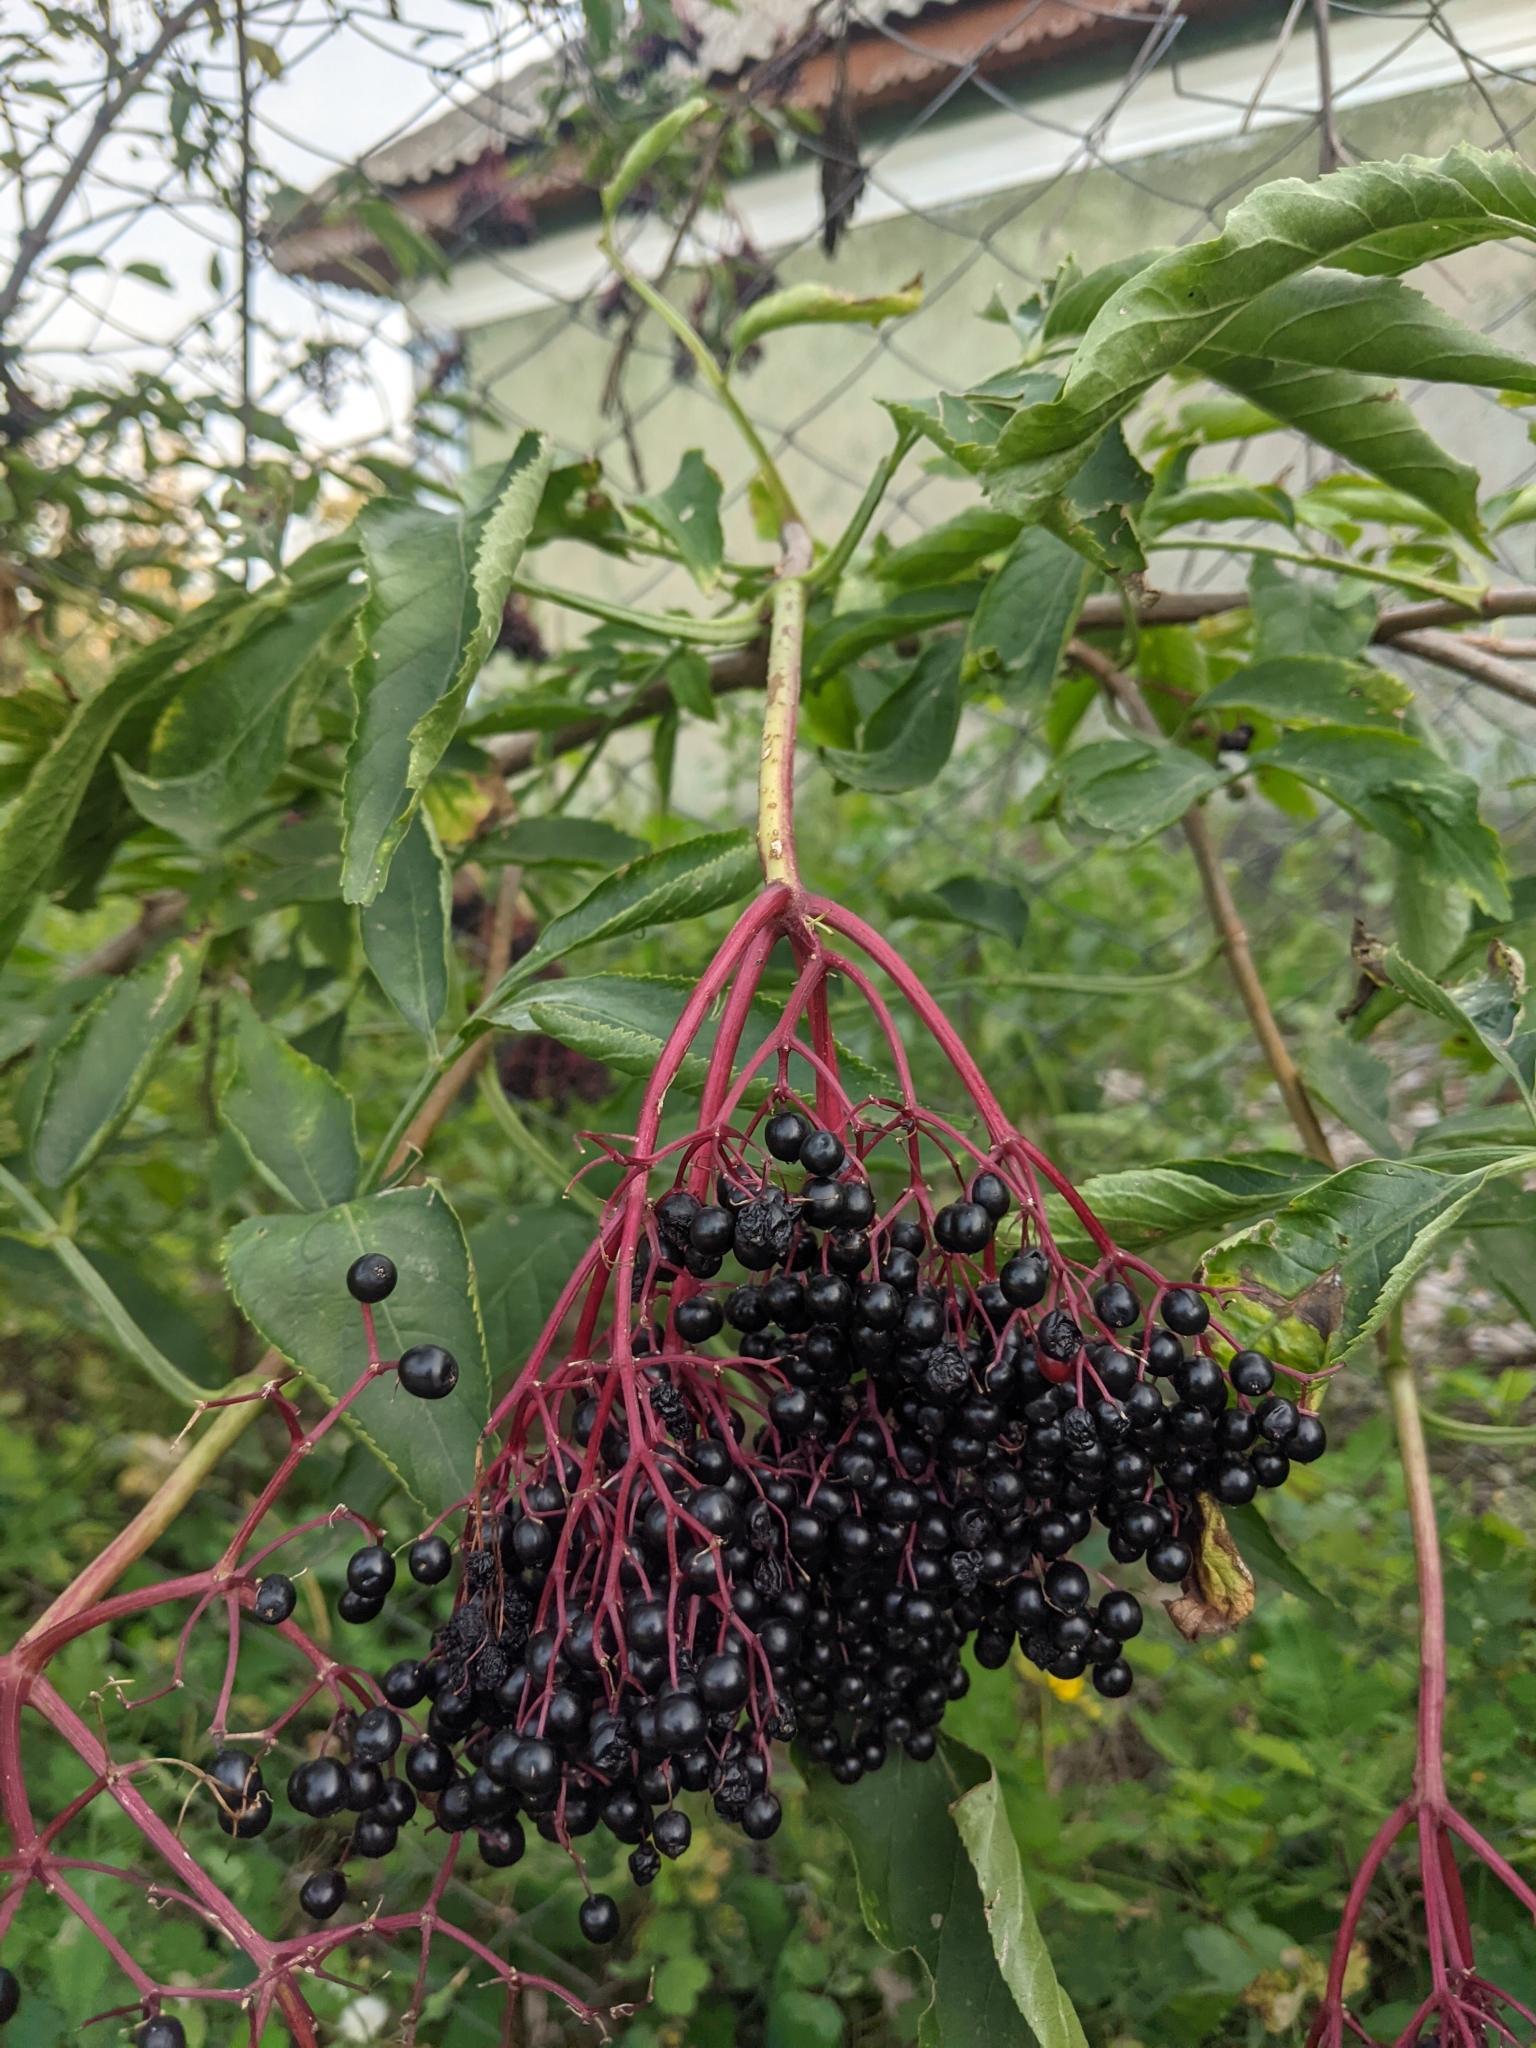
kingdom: Plantae
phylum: Tracheophyta
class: Magnoliopsida
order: Dipsacales
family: Viburnaceae
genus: Sambucus
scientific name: Sambucus nigra
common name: Elder
